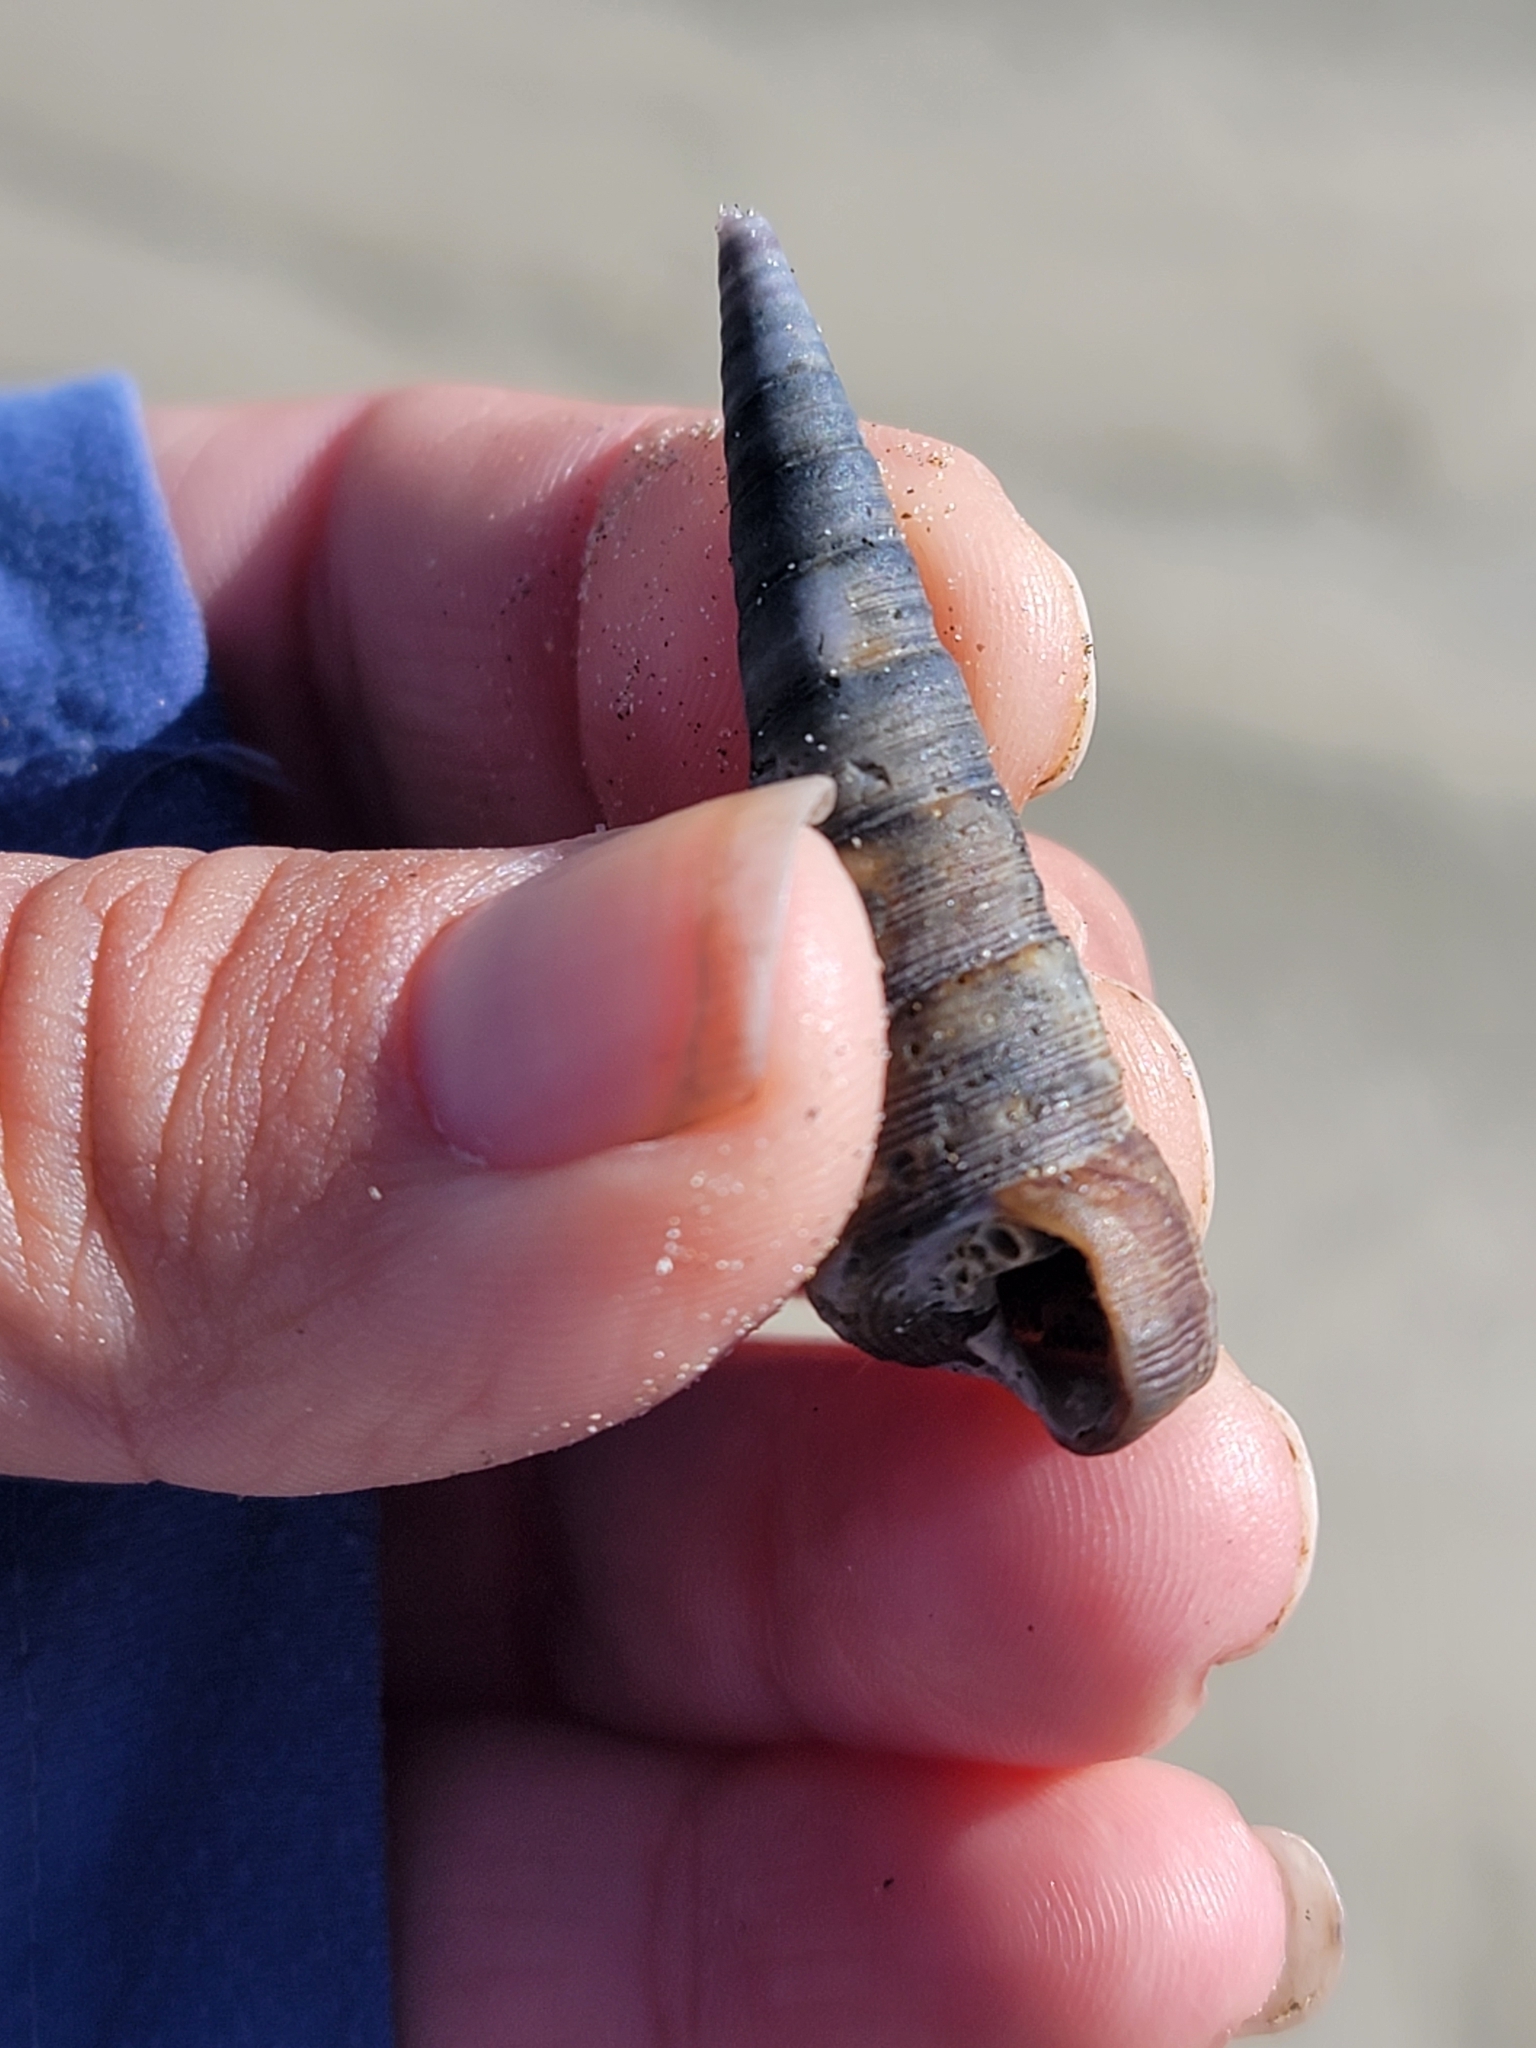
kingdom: Animalia
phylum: Mollusca
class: Gastropoda
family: Turritellidae
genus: Maoricolpus
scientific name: Maoricolpus roseus
